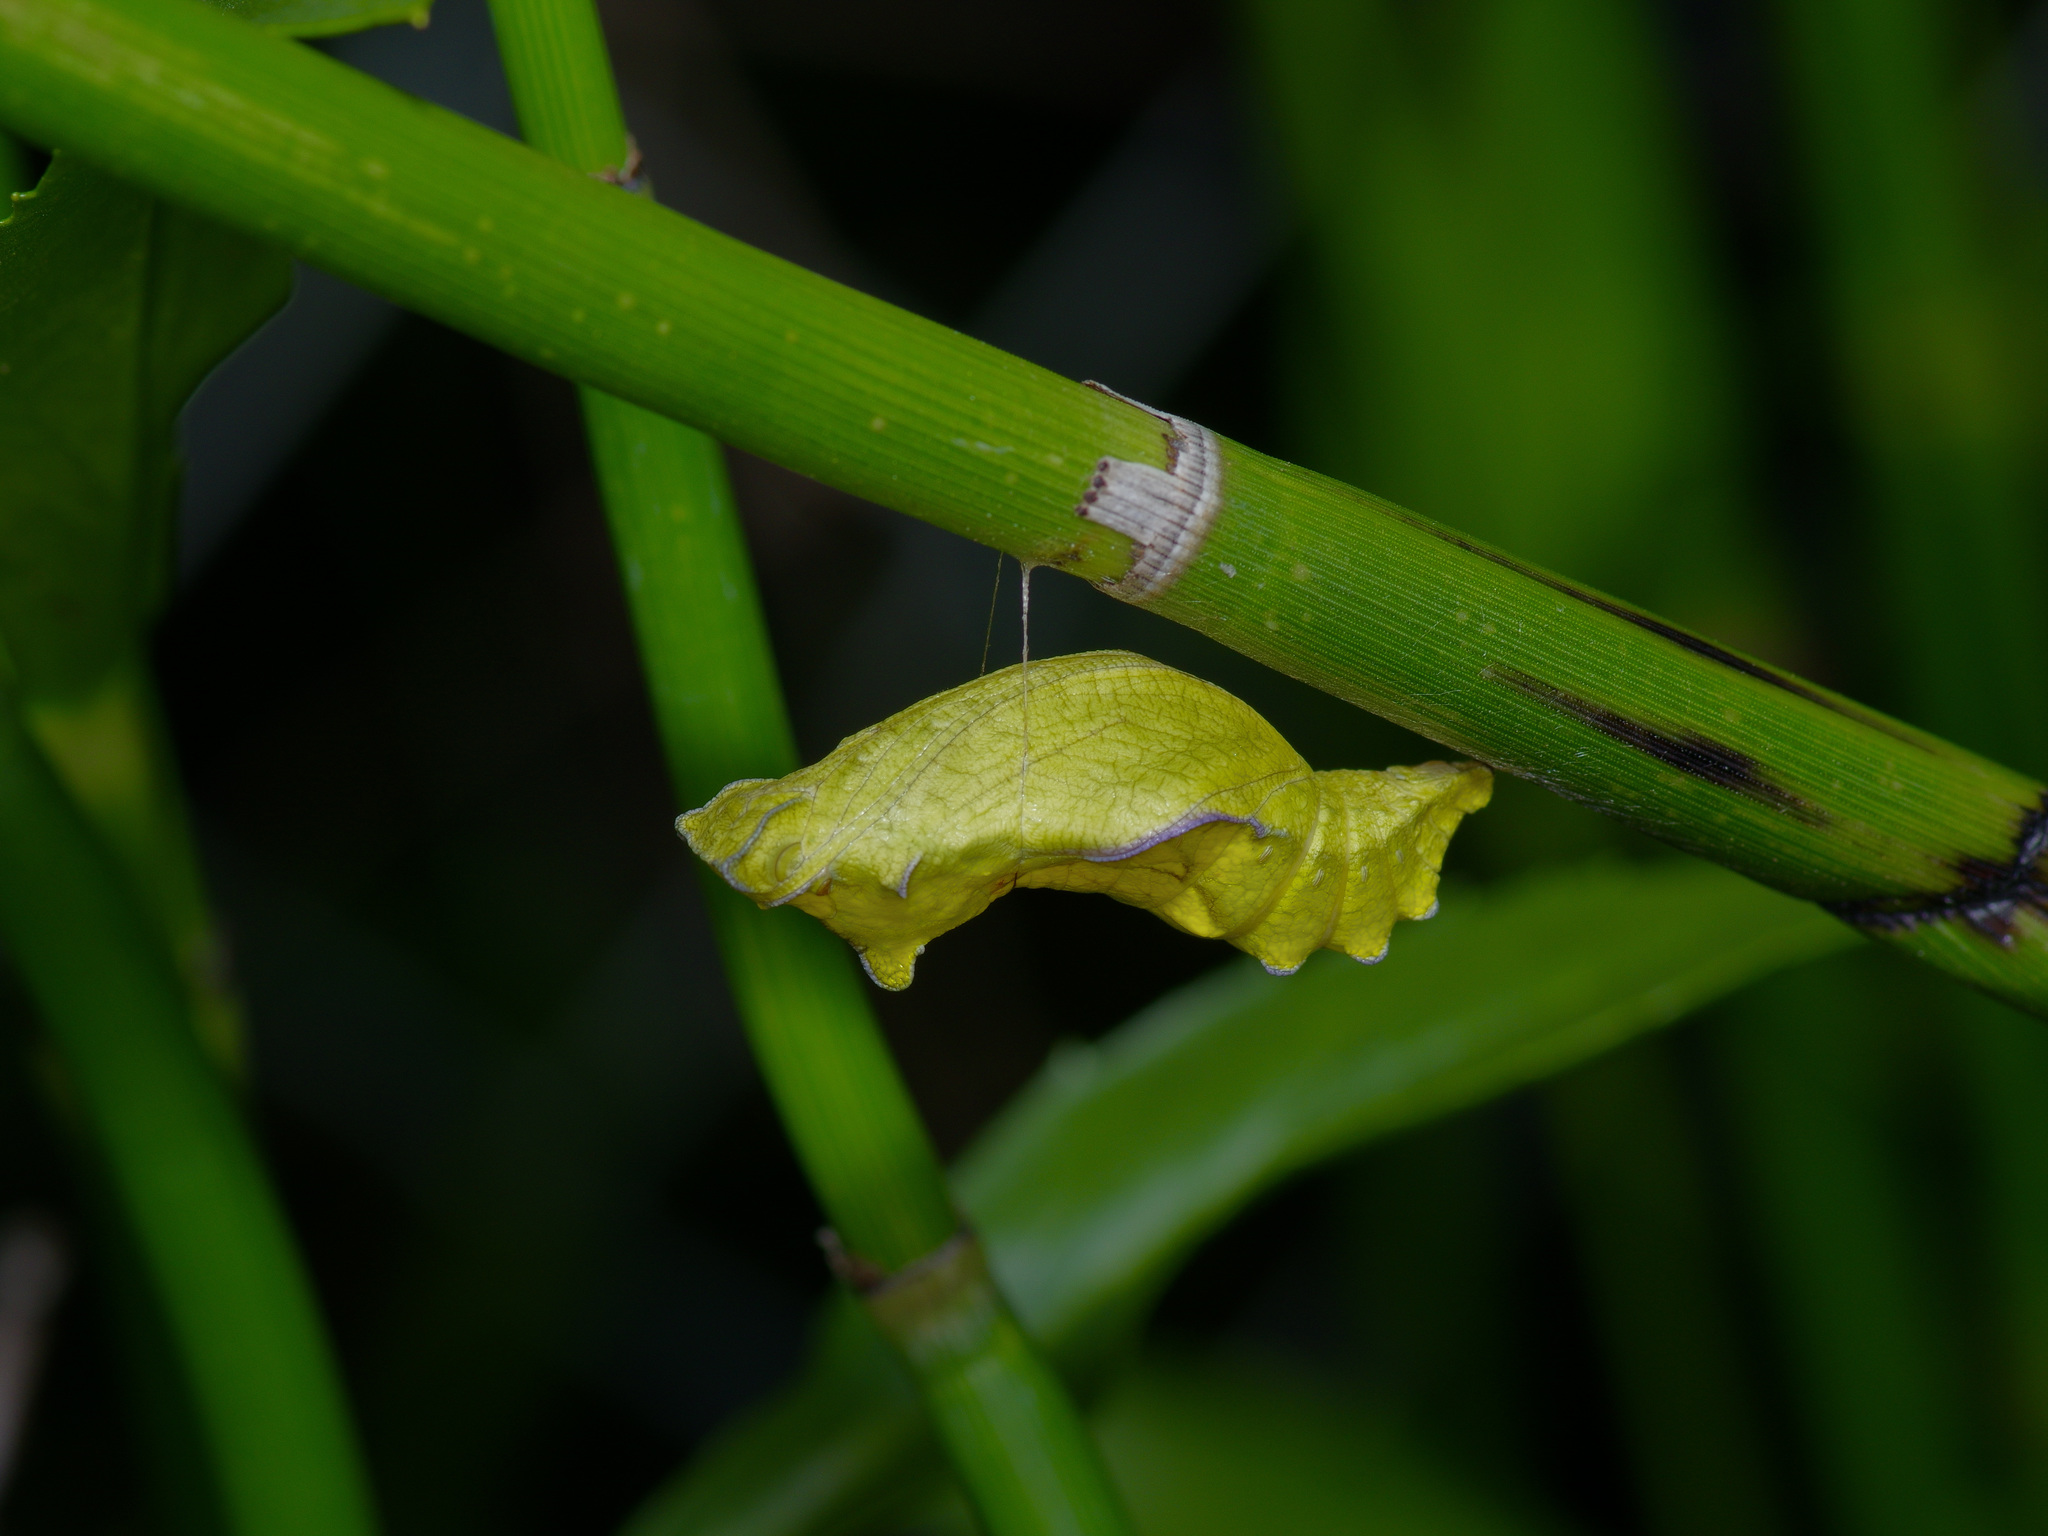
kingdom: Animalia
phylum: Arthropoda
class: Insecta
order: Lepidoptera
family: Papilionidae
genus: Battus
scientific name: Battus philenor
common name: Pipevine swallowtail
